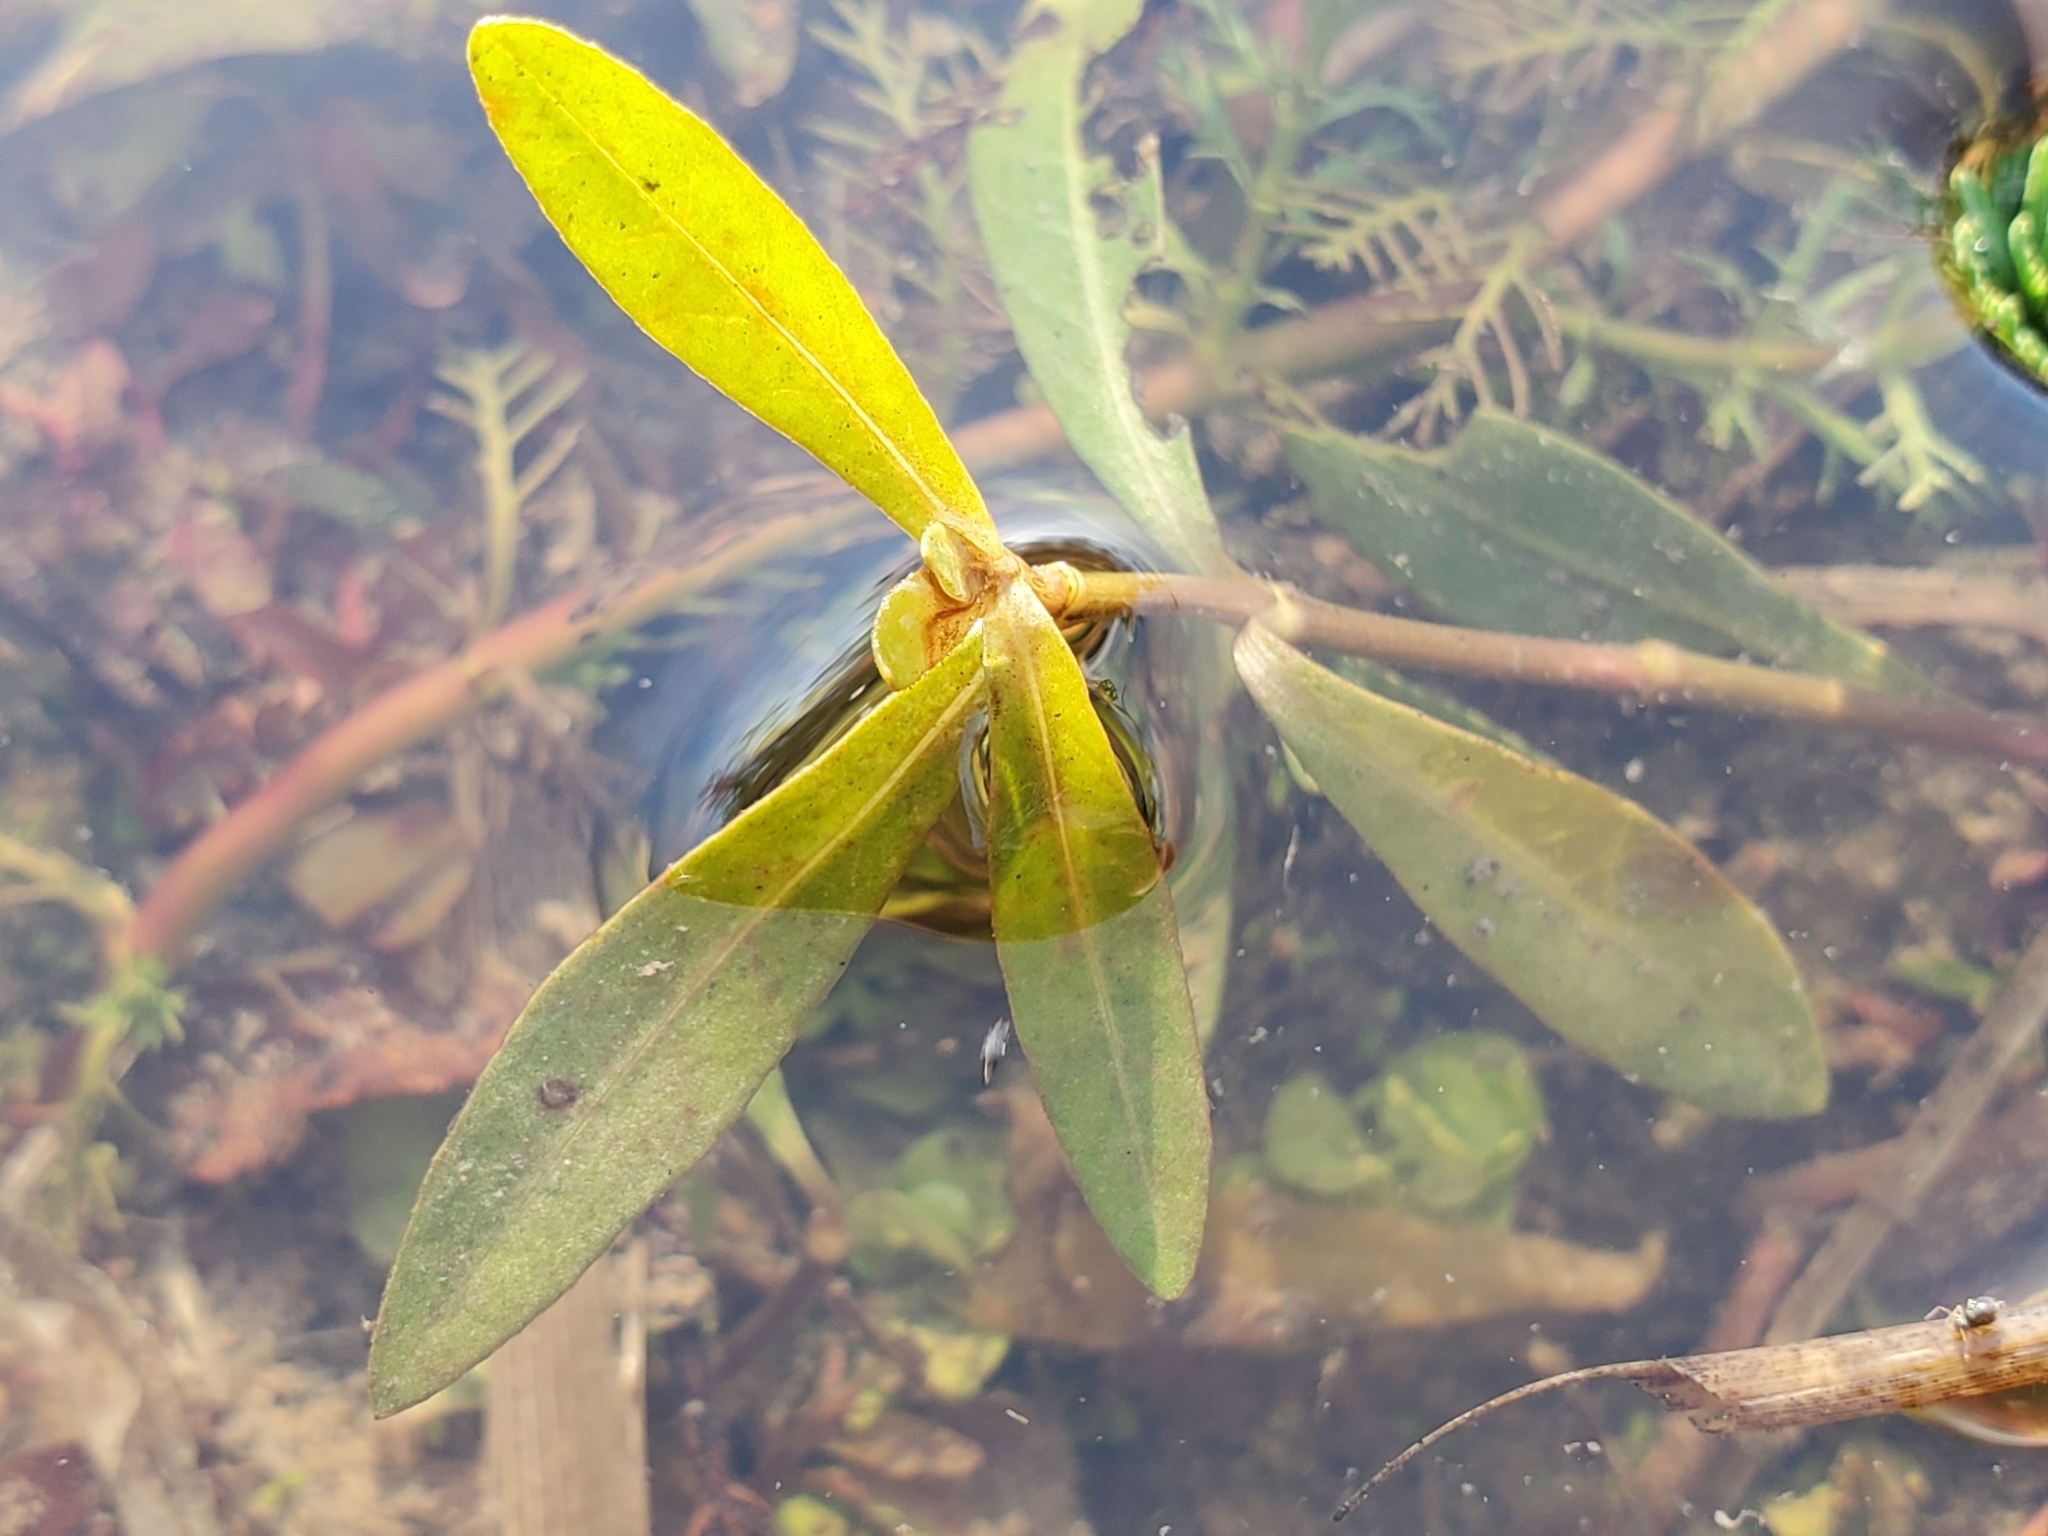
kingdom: Plantae
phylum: Tracheophyta
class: Magnoliopsida
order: Caryophyllales
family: Amaranthaceae
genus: Alternanthera
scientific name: Alternanthera philoxeroides
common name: Alligatorweed
